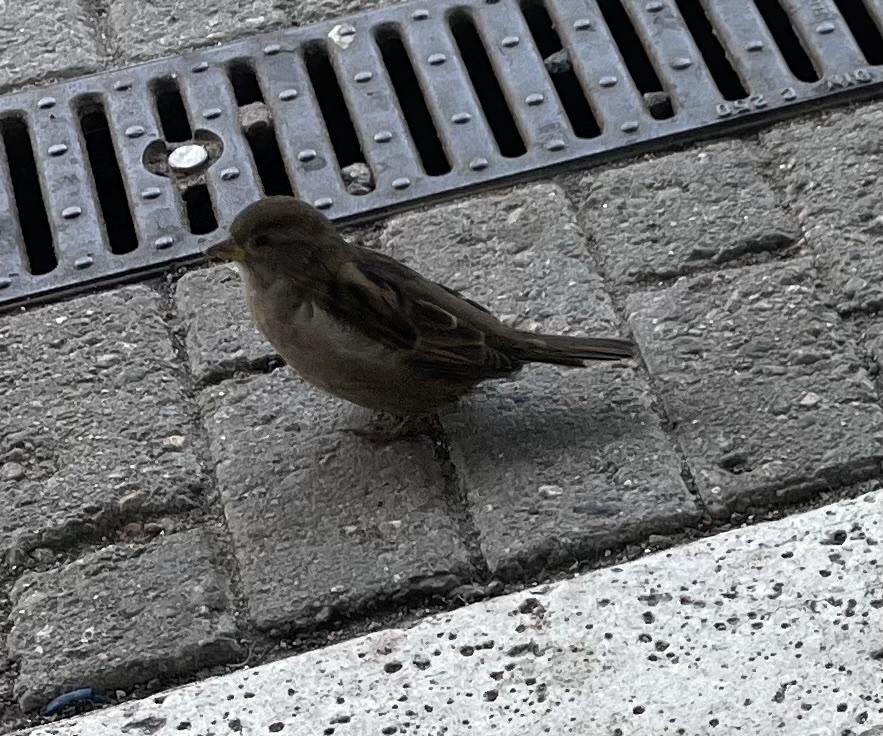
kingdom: Animalia
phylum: Chordata
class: Aves
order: Passeriformes
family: Passeridae
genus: Passer
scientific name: Passer domesticus
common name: House sparrow
